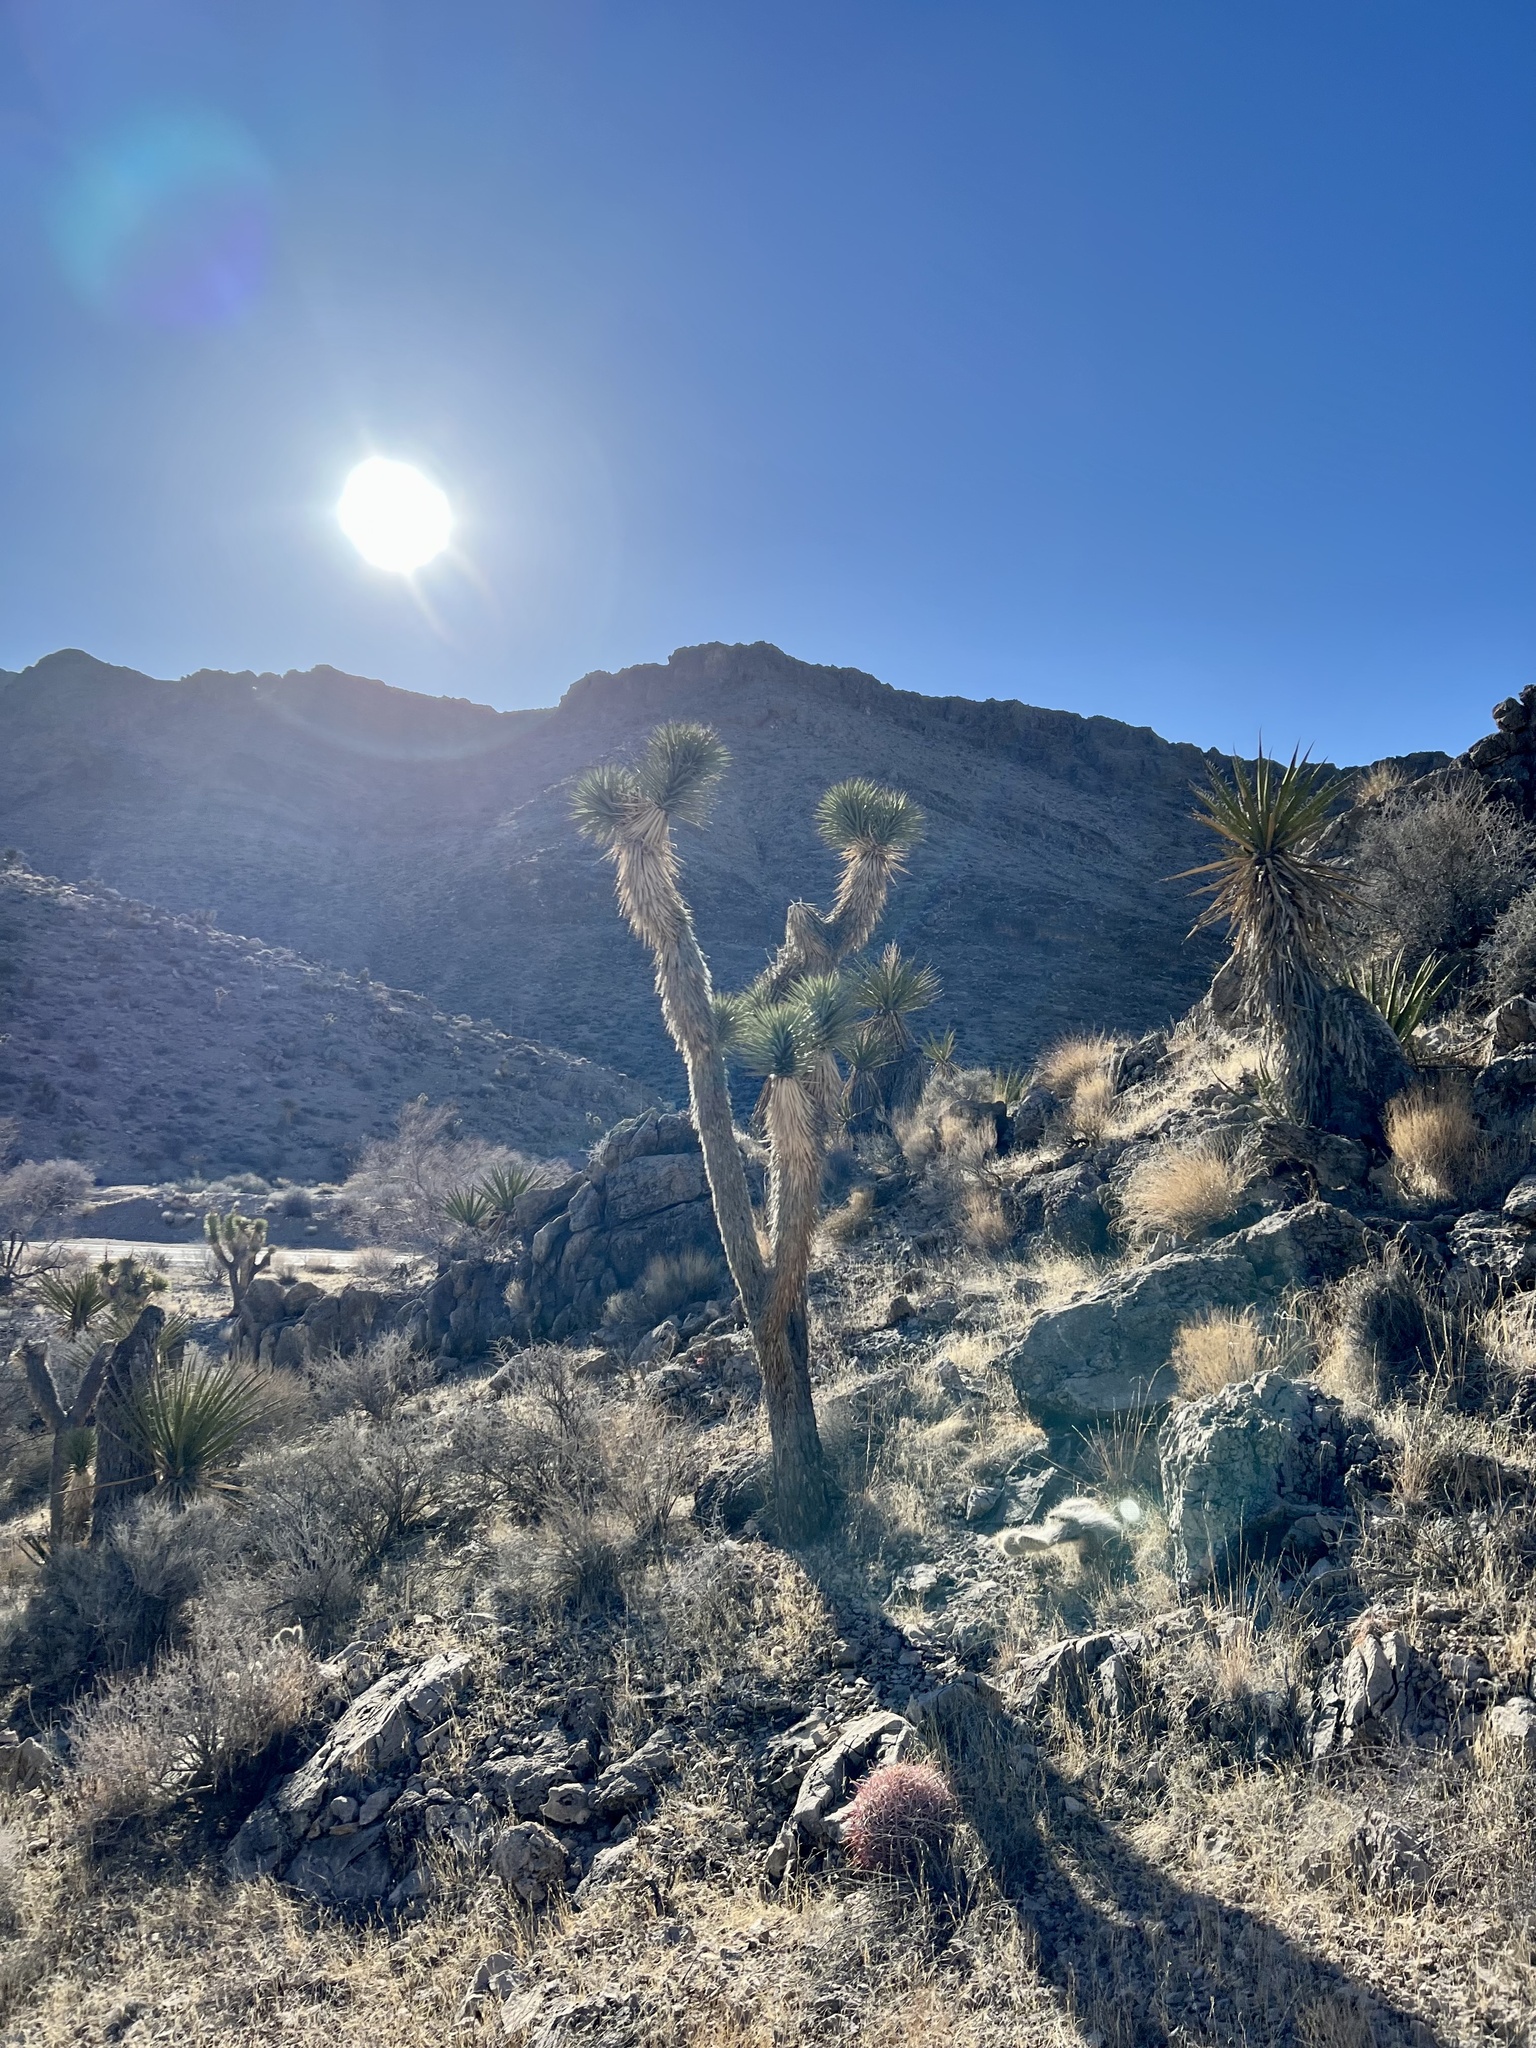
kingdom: Plantae
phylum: Tracheophyta
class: Liliopsida
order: Asparagales
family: Asparagaceae
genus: Yucca
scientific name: Yucca brevifolia
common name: Joshua tree
